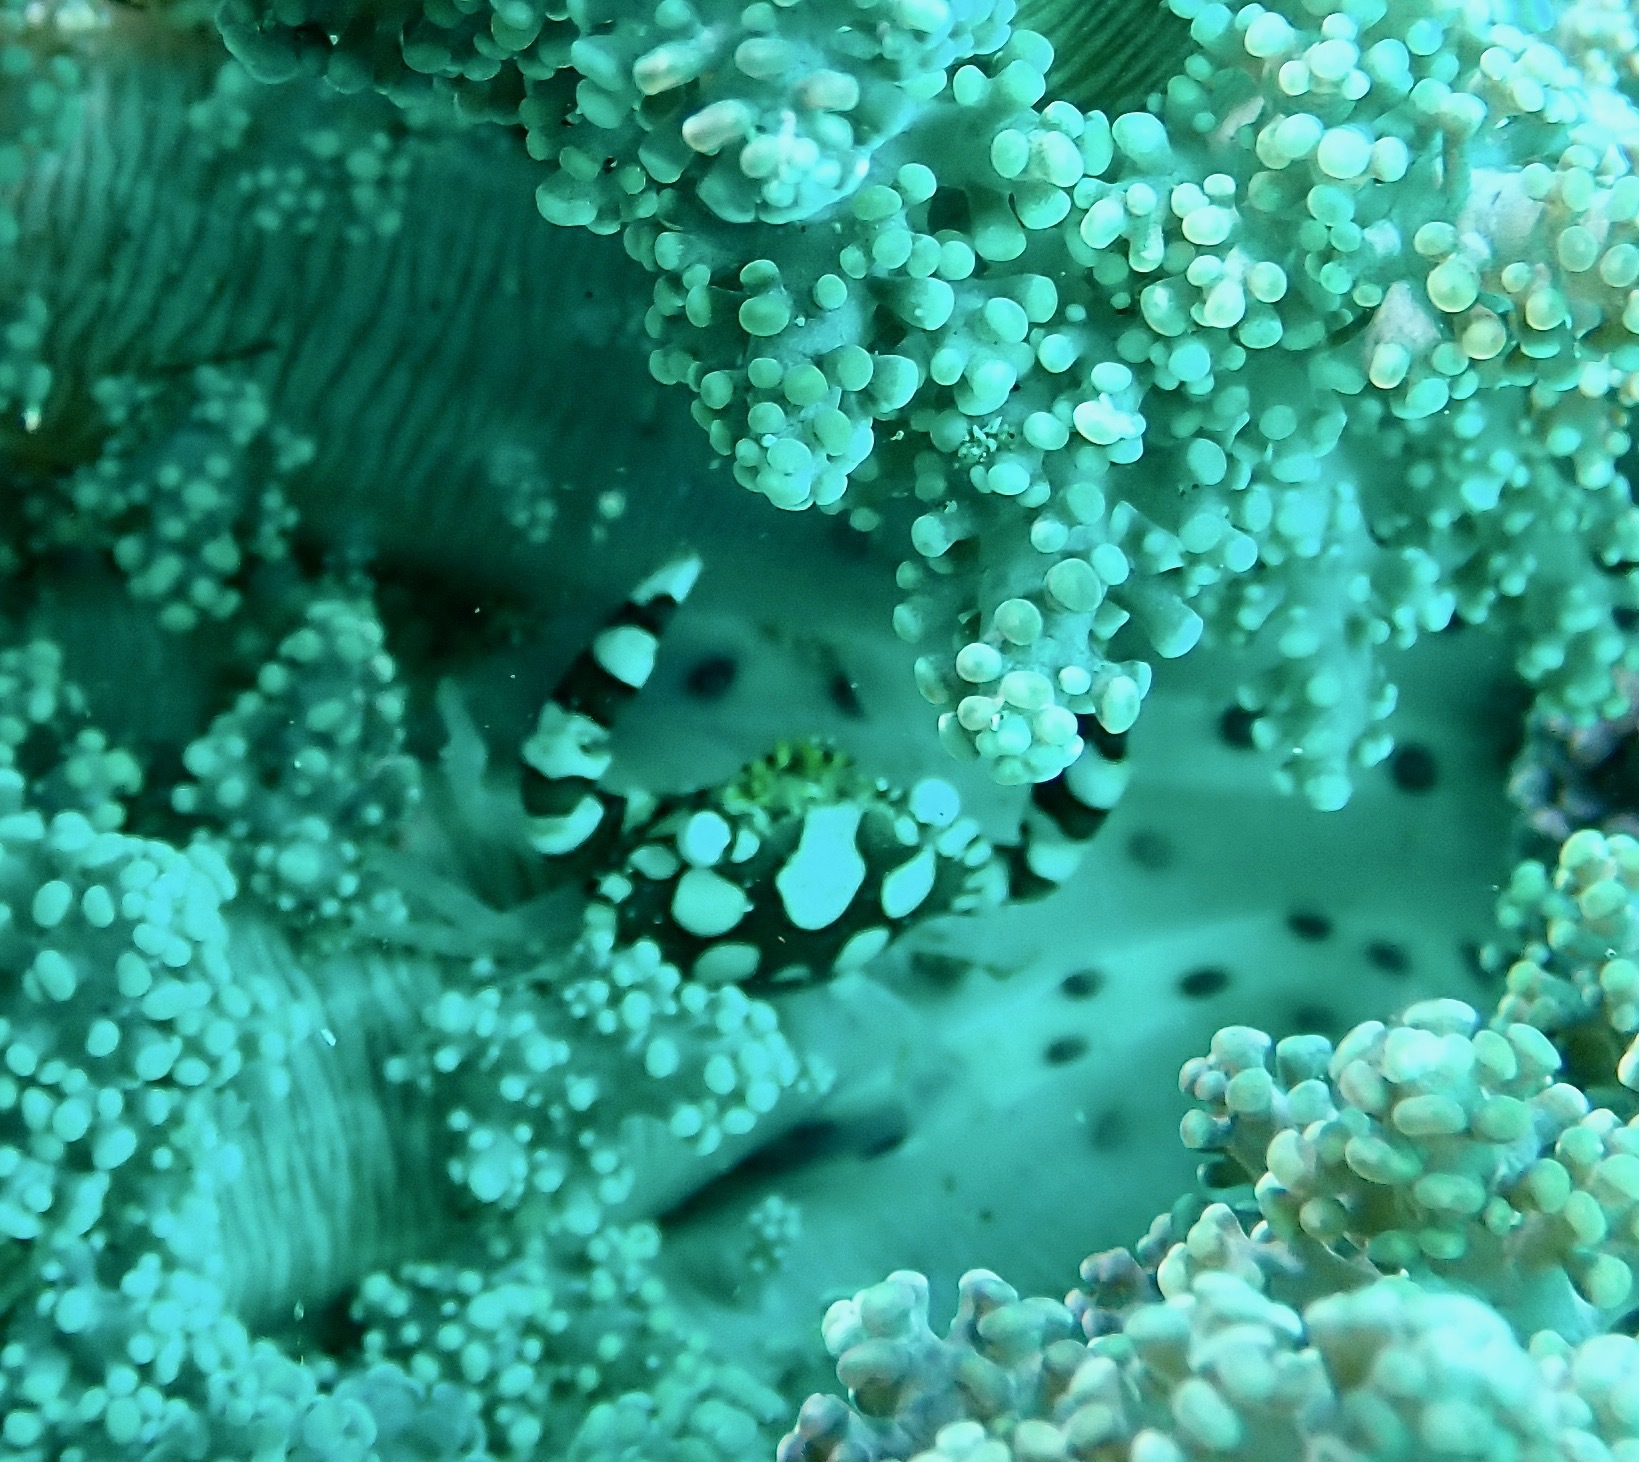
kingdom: Animalia
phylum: Arthropoda
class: Malacostraca
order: Decapoda
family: Portunidae
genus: Lissocarcinus
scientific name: Lissocarcinus laevis
